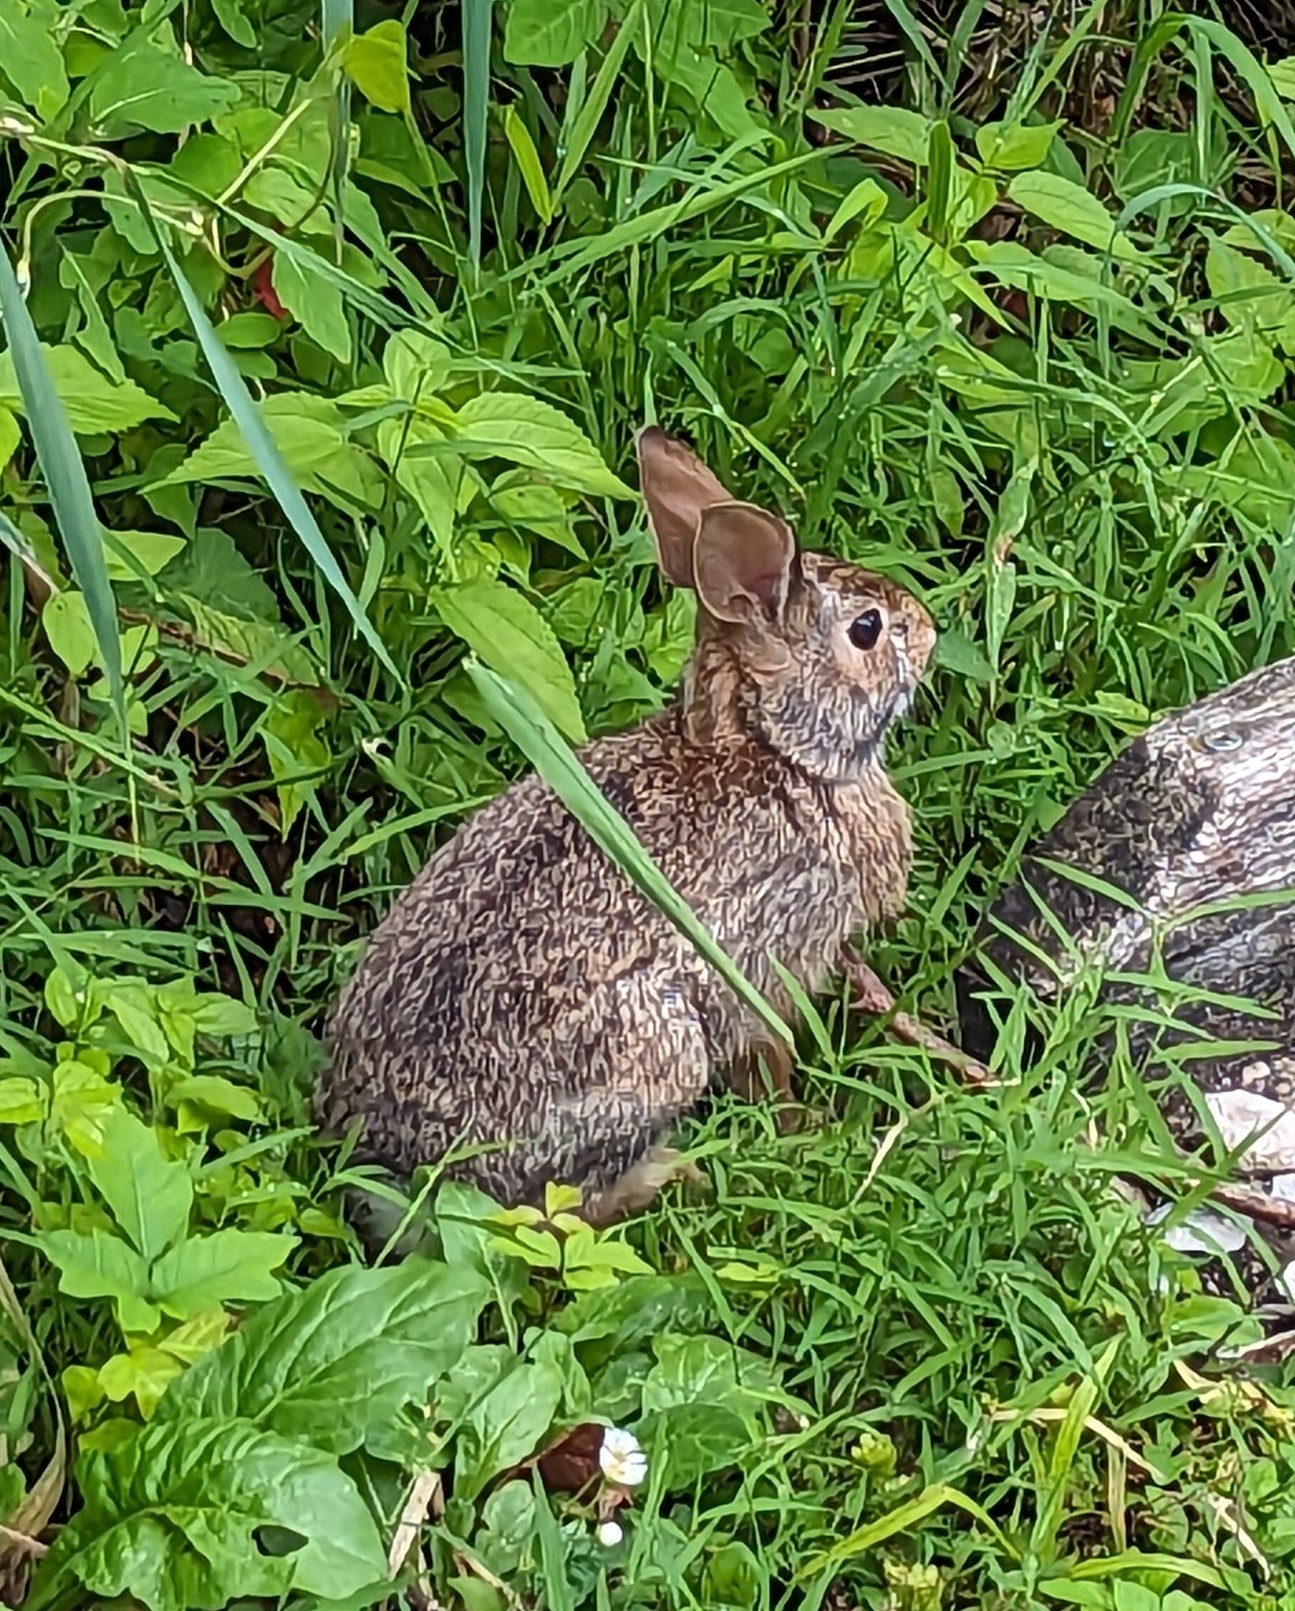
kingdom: Animalia
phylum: Chordata
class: Mammalia
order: Lagomorpha
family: Leporidae
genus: Sylvilagus
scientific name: Sylvilagus floridanus
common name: Eastern cottontail
